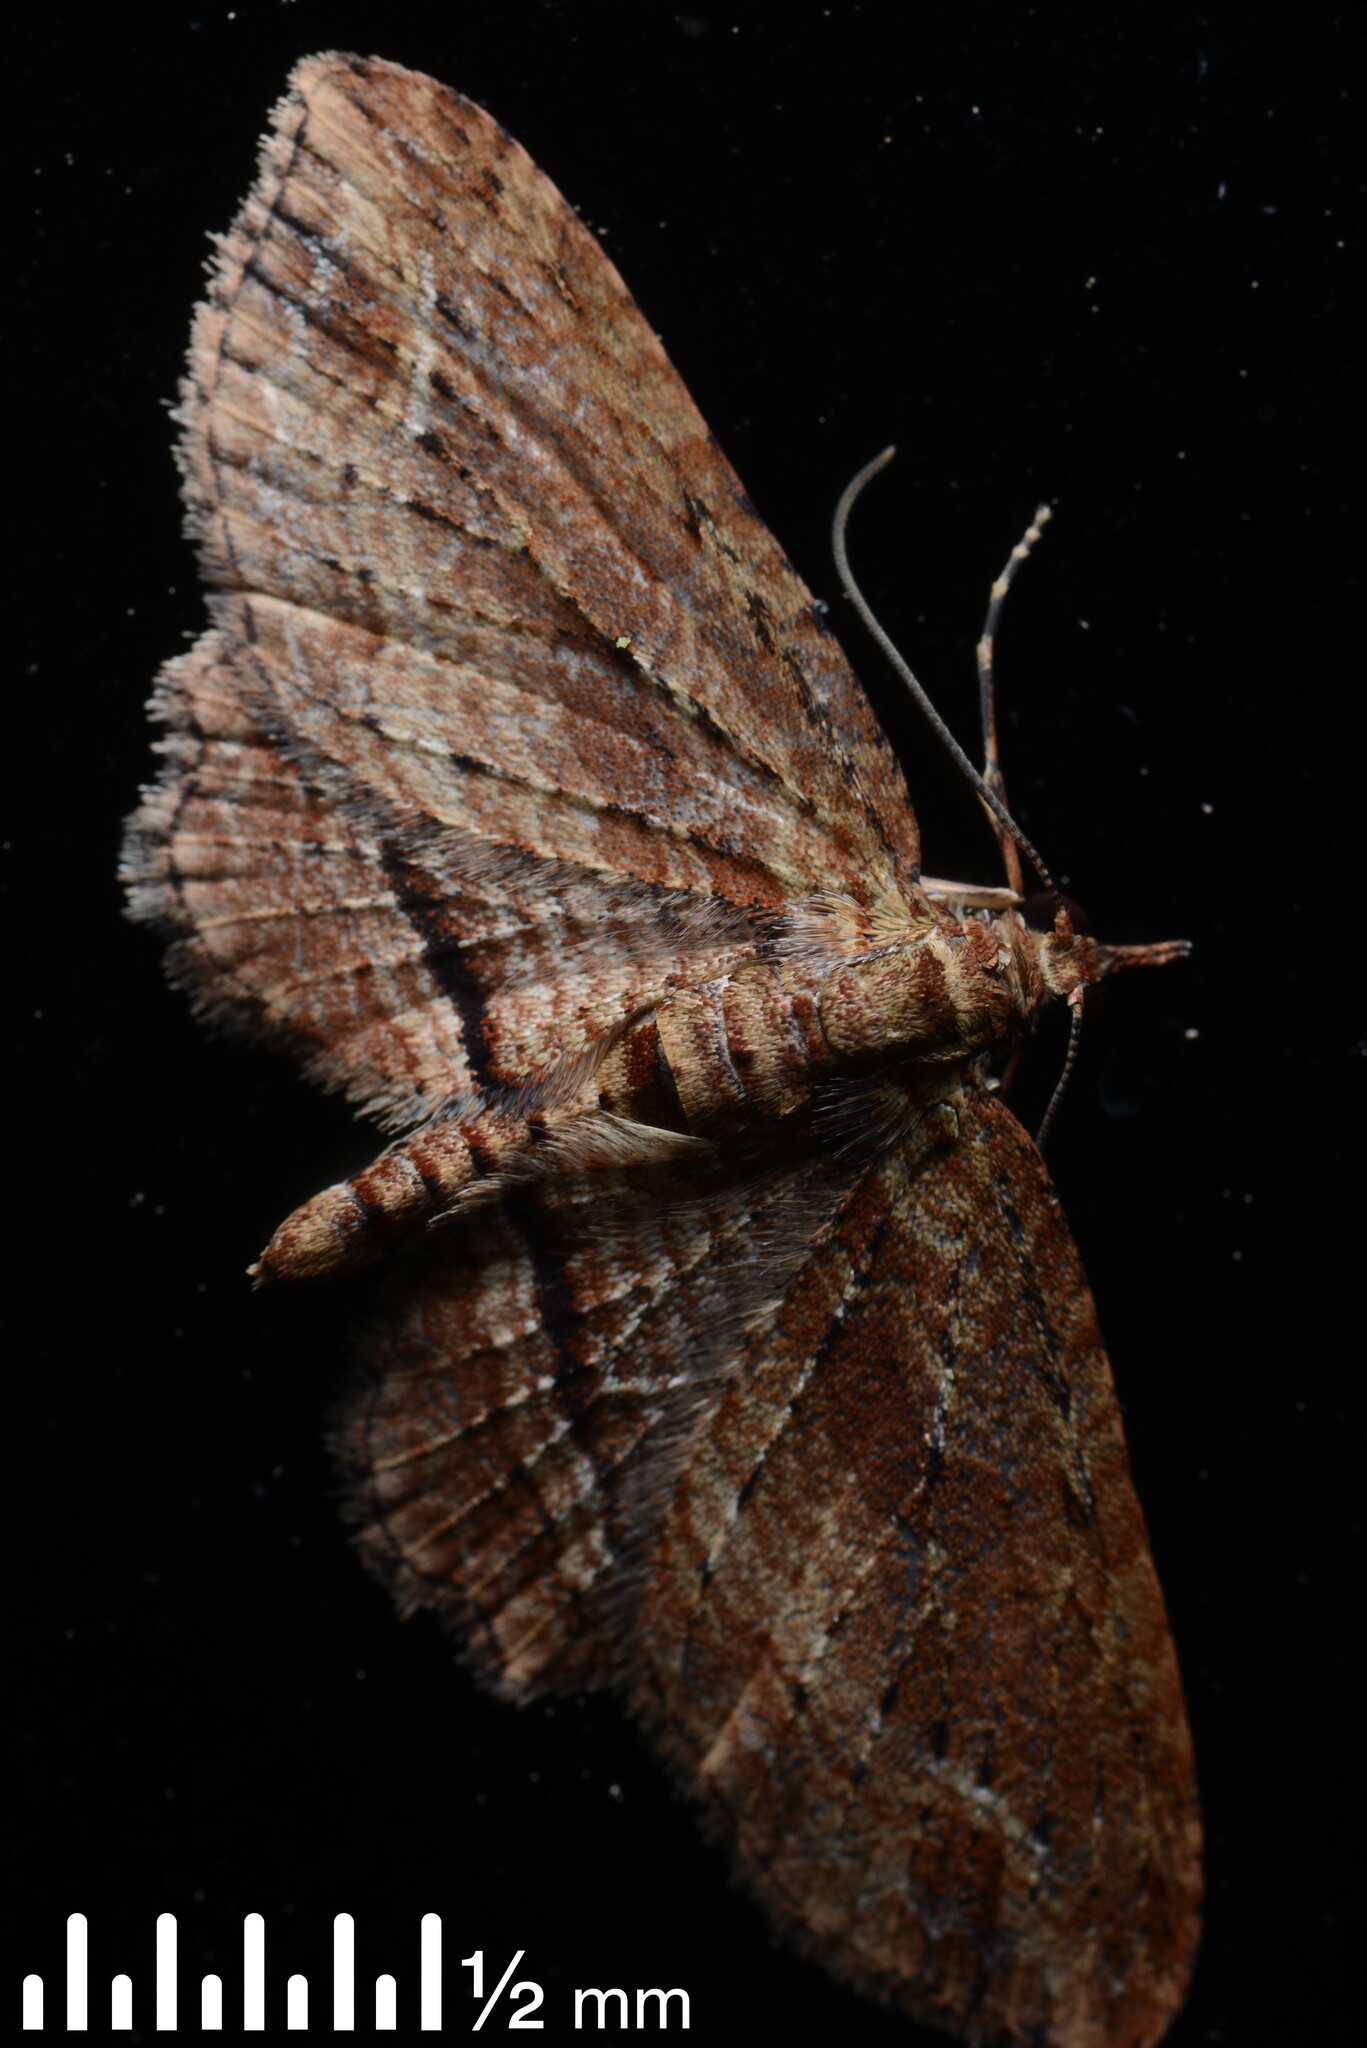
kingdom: Animalia
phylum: Arthropoda
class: Insecta
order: Lepidoptera
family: Geometridae
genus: Chloroclystis
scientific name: Chloroclystis filata
